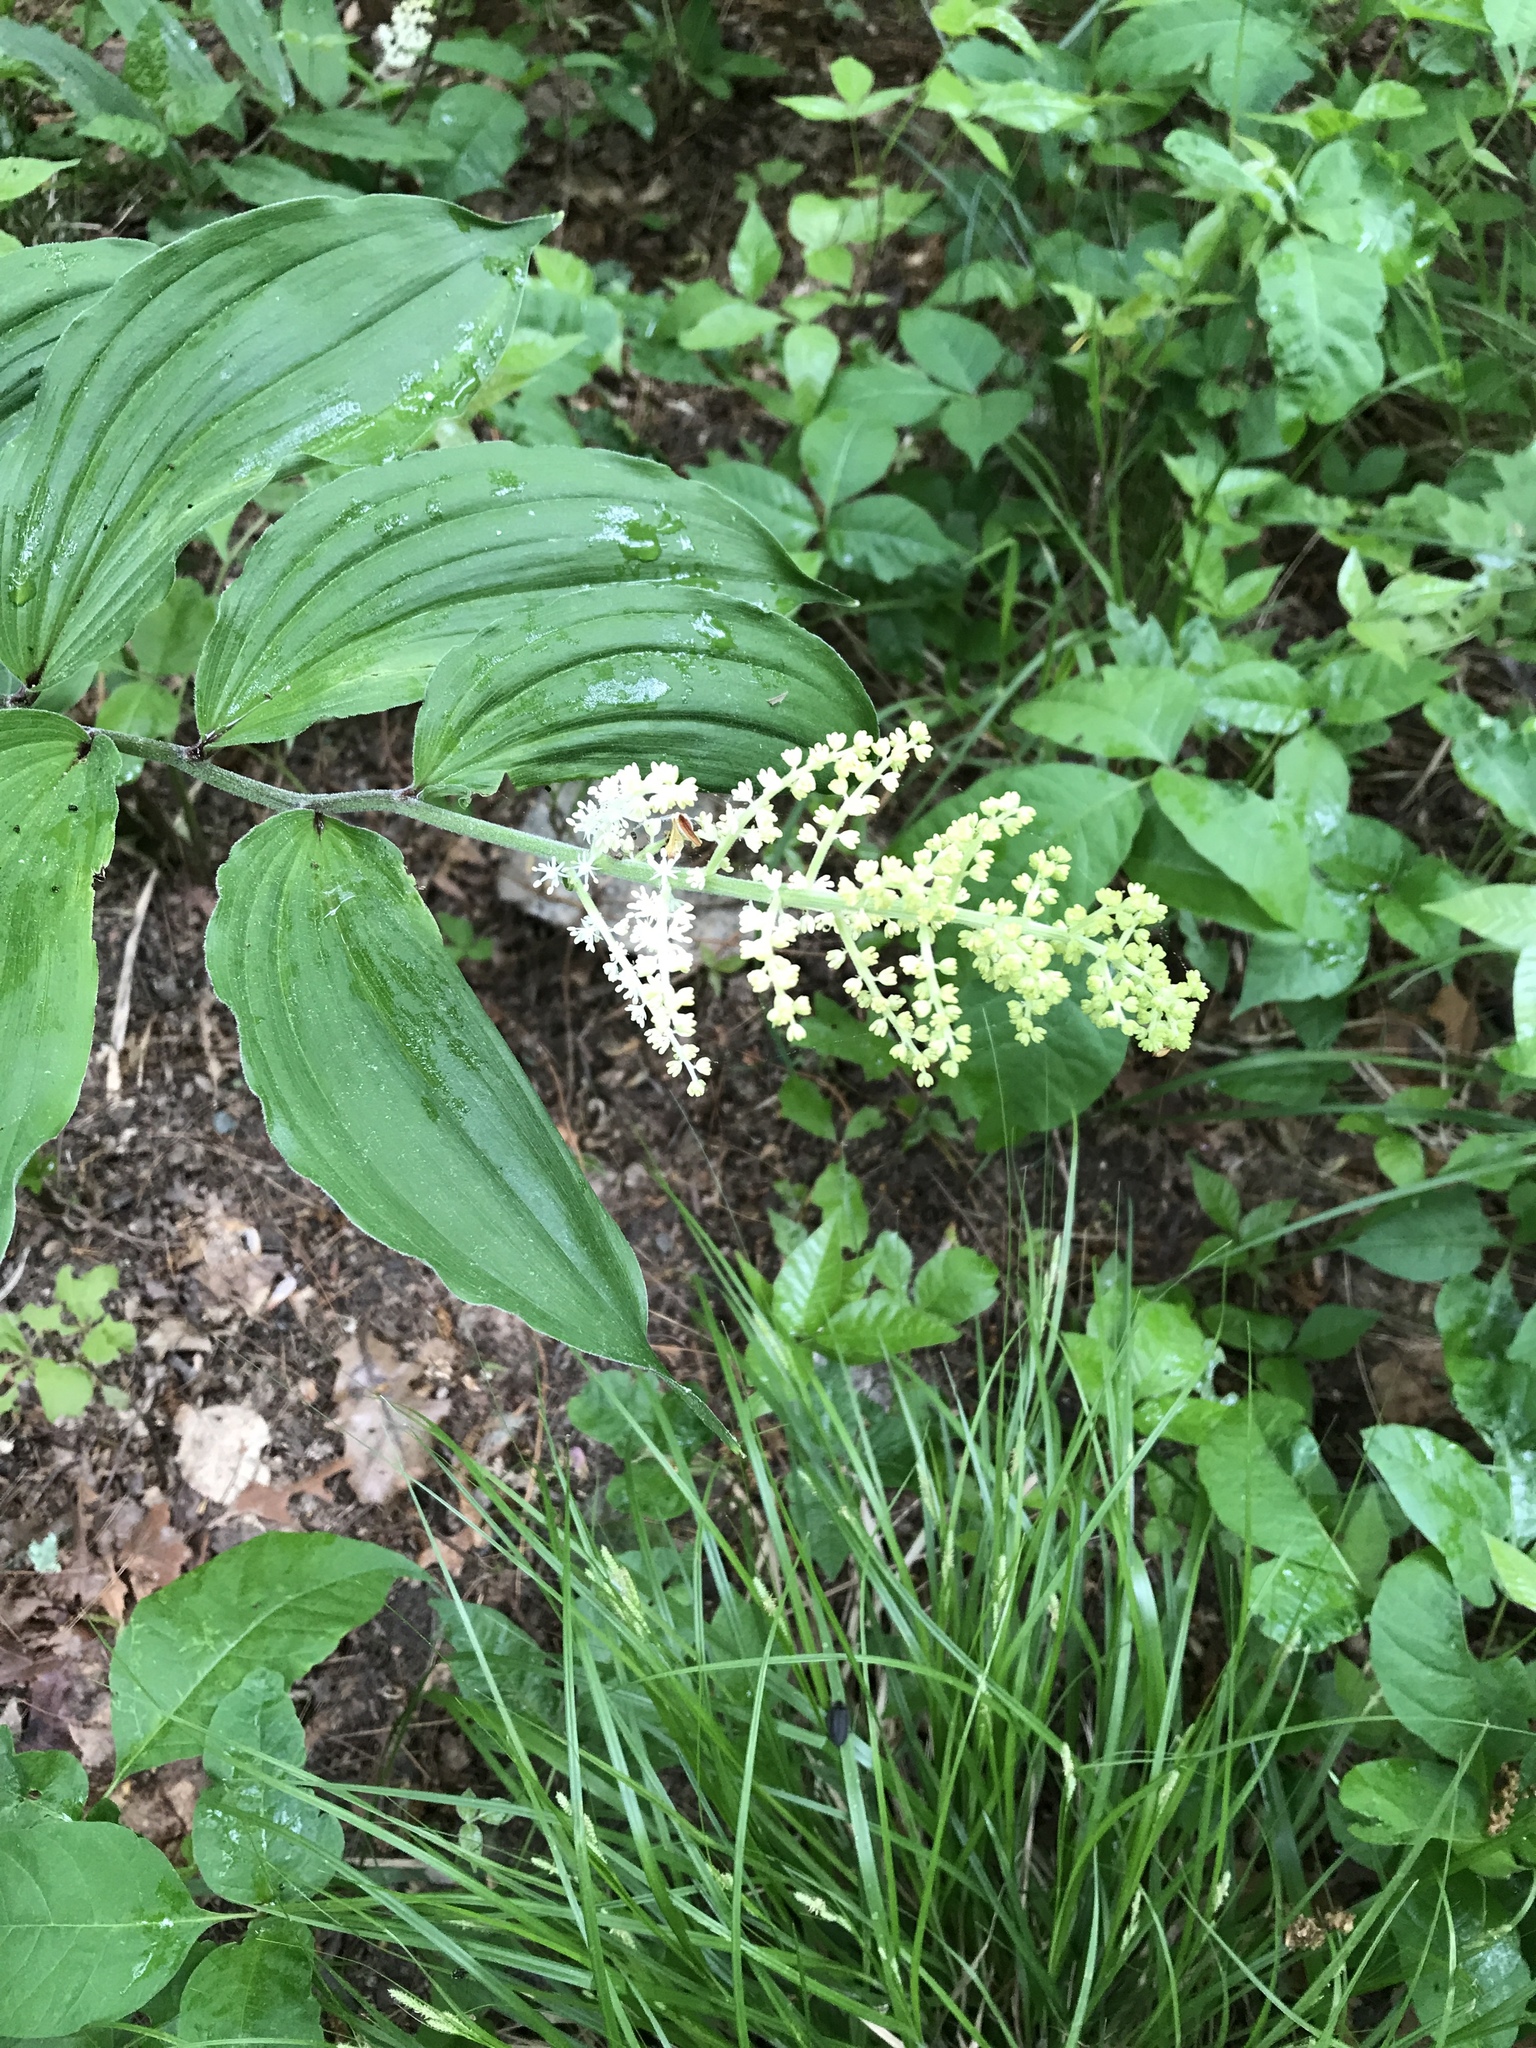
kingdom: Plantae
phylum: Tracheophyta
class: Liliopsida
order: Asparagales
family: Asparagaceae
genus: Maianthemum
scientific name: Maianthemum racemosum
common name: False spikenard
